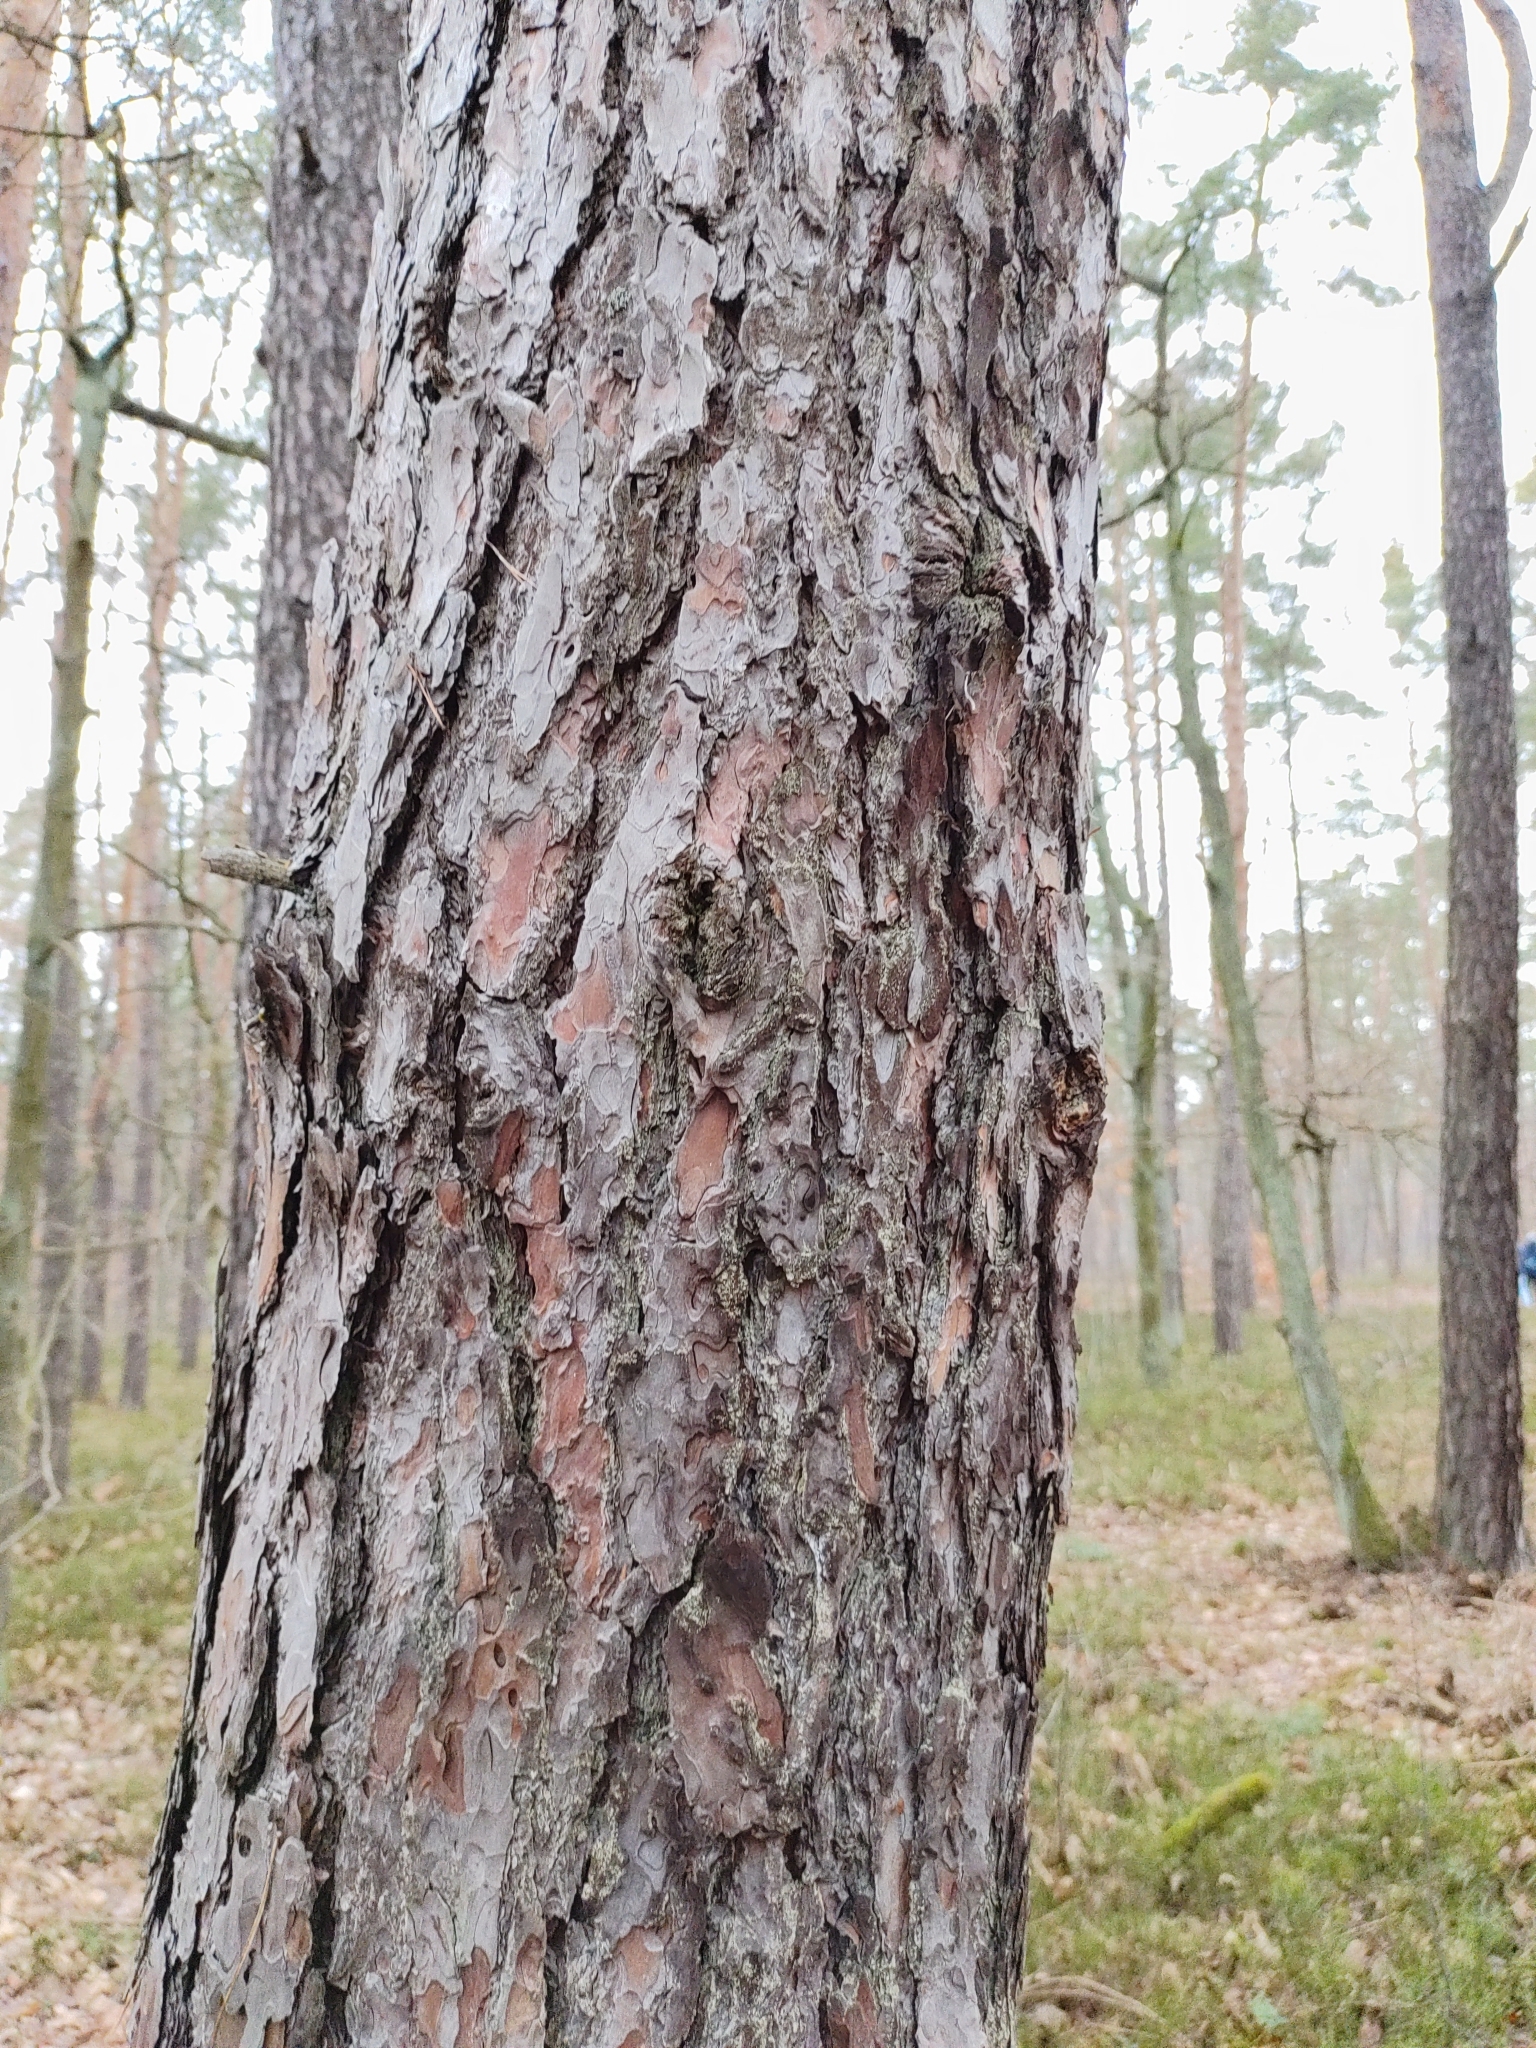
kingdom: Plantae
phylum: Tracheophyta
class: Pinopsida
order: Pinales
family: Pinaceae
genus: Pinus
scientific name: Pinus sylvestris
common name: Scots pine
